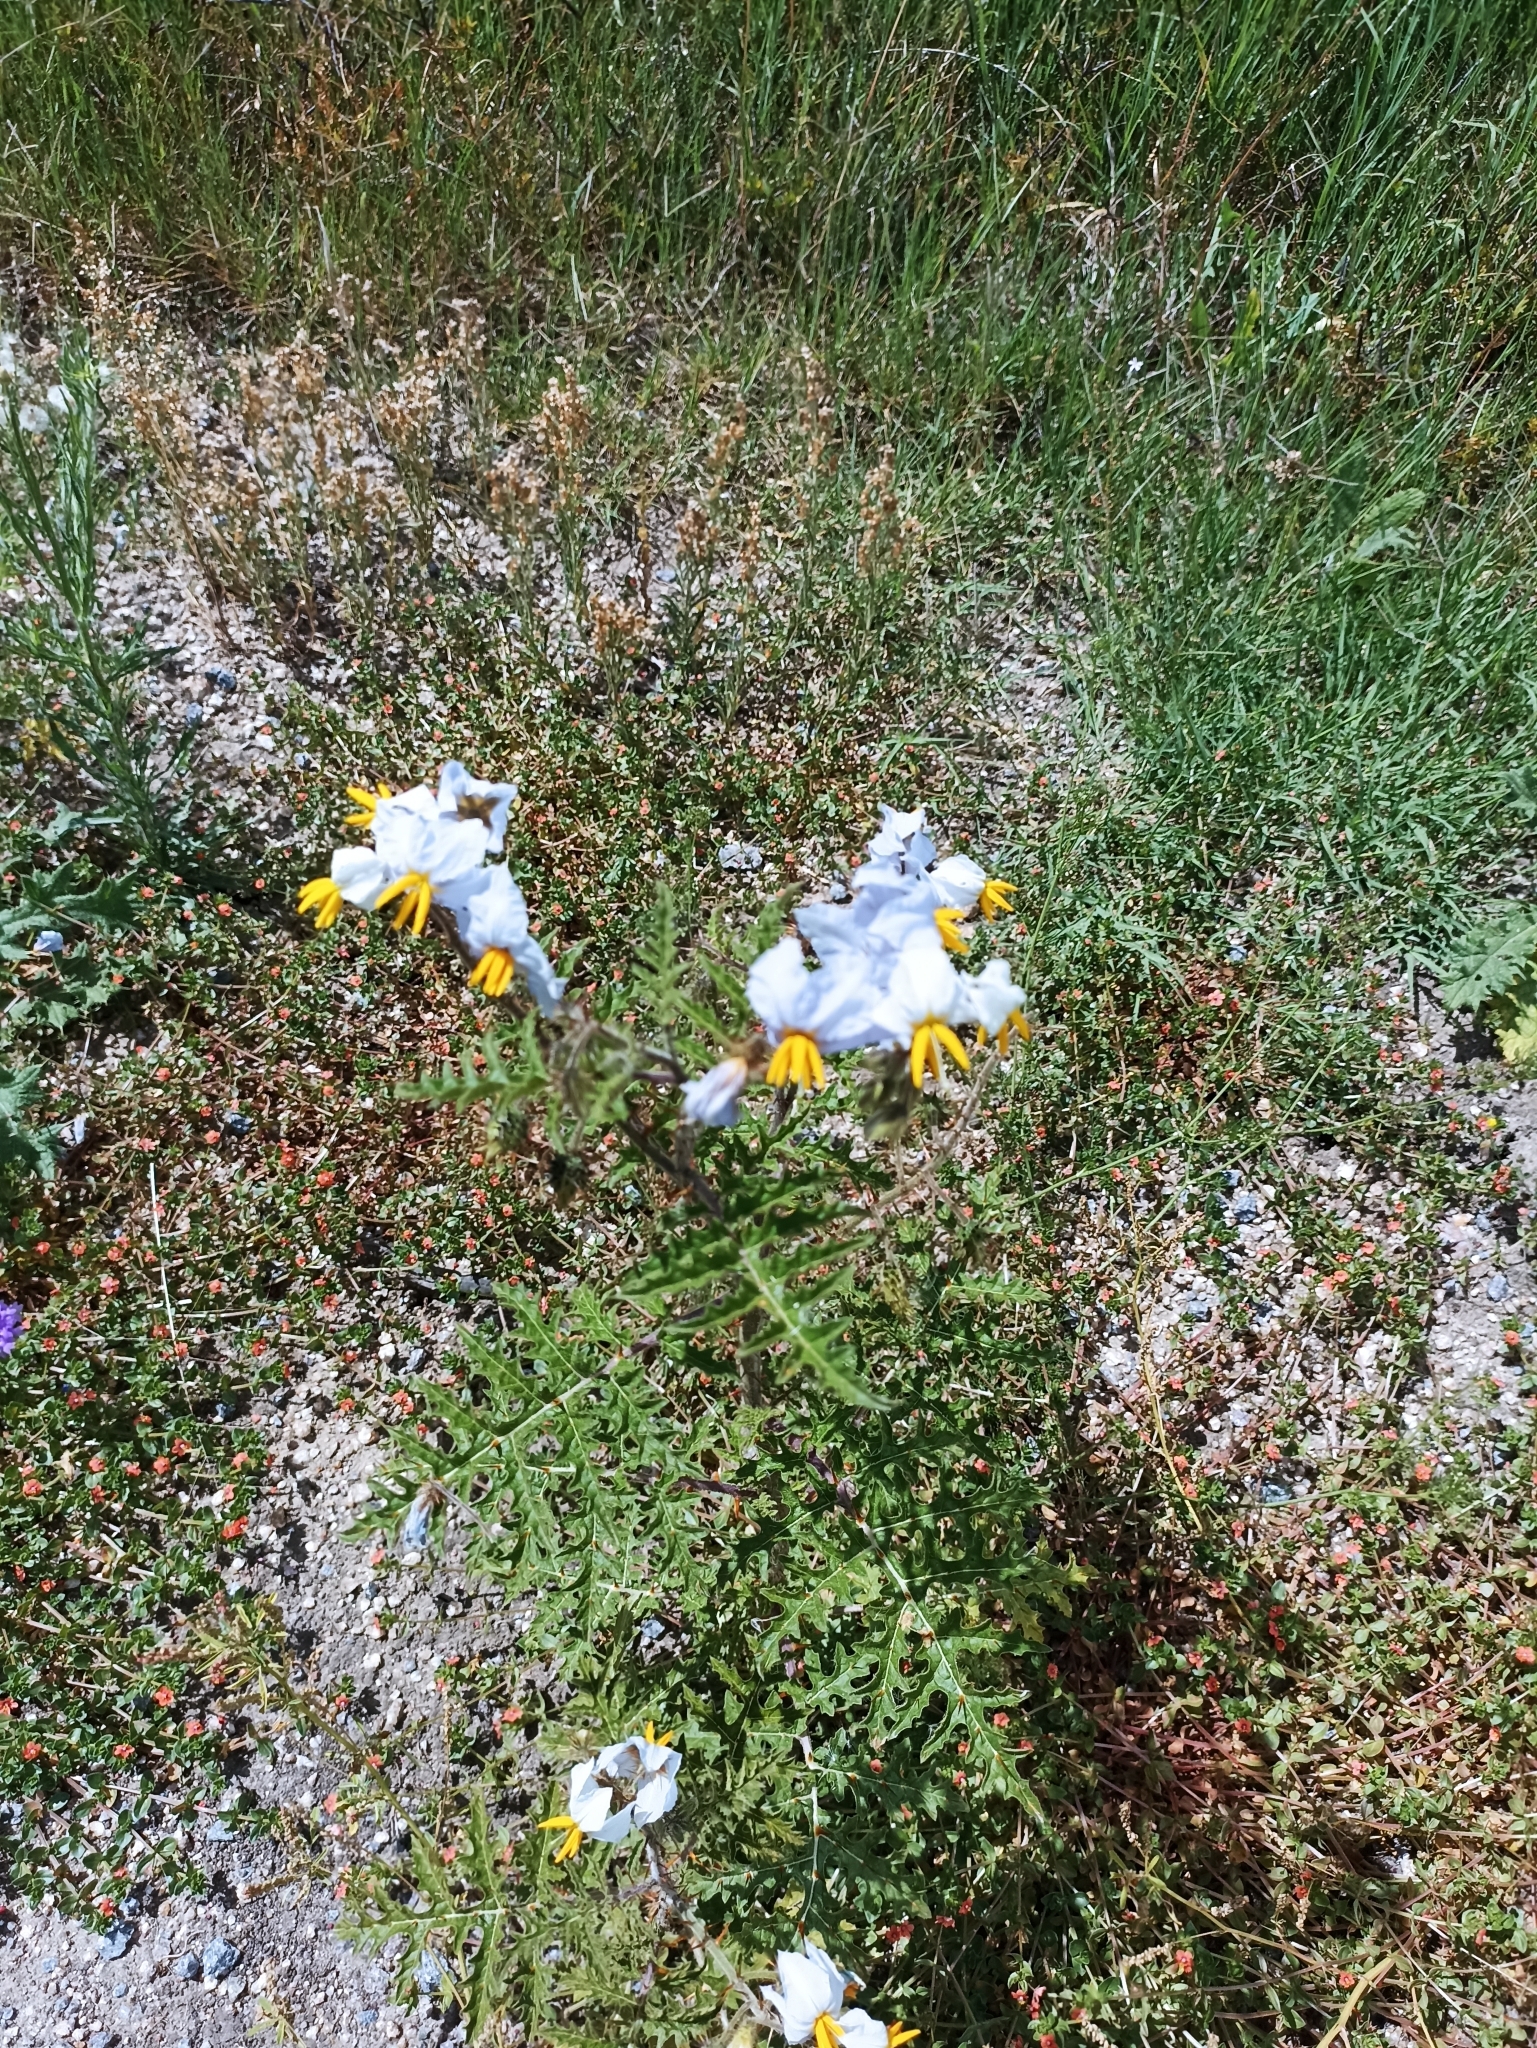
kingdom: Plantae
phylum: Tracheophyta
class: Magnoliopsida
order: Solanales
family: Solanaceae
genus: Solanum
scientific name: Solanum sisymbriifolium
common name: Red buffalo-bur
